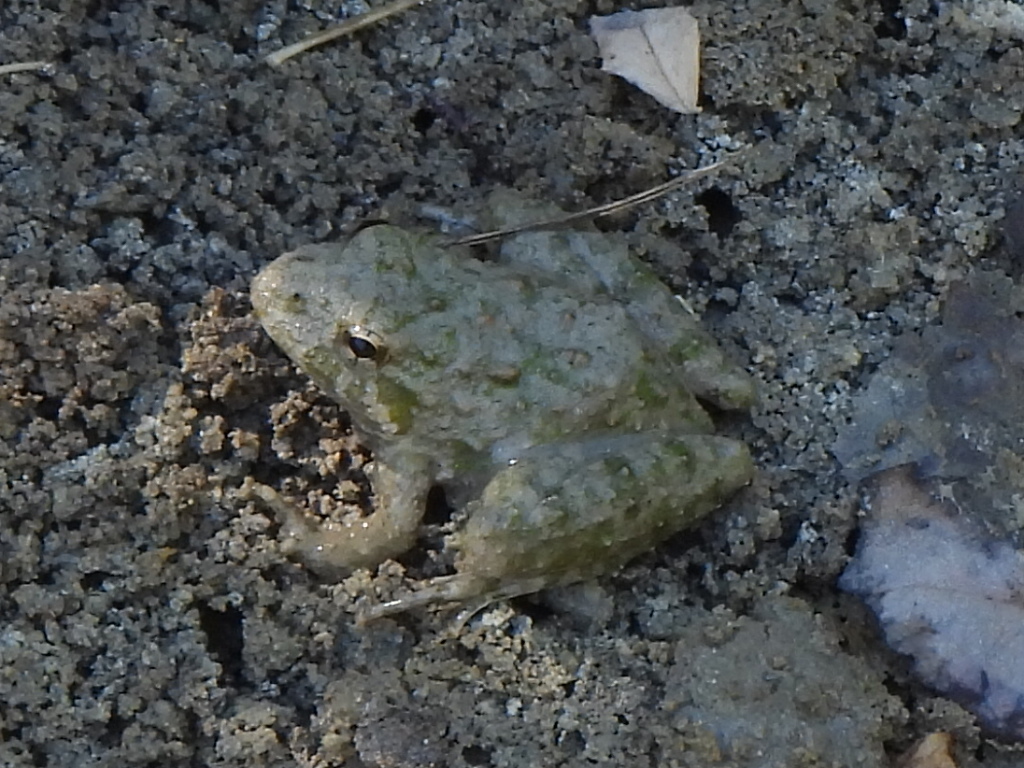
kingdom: Animalia
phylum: Chordata
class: Amphibia
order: Anura
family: Hylidae
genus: Acris
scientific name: Acris blanchardi
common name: Blanchard's cricket frog
